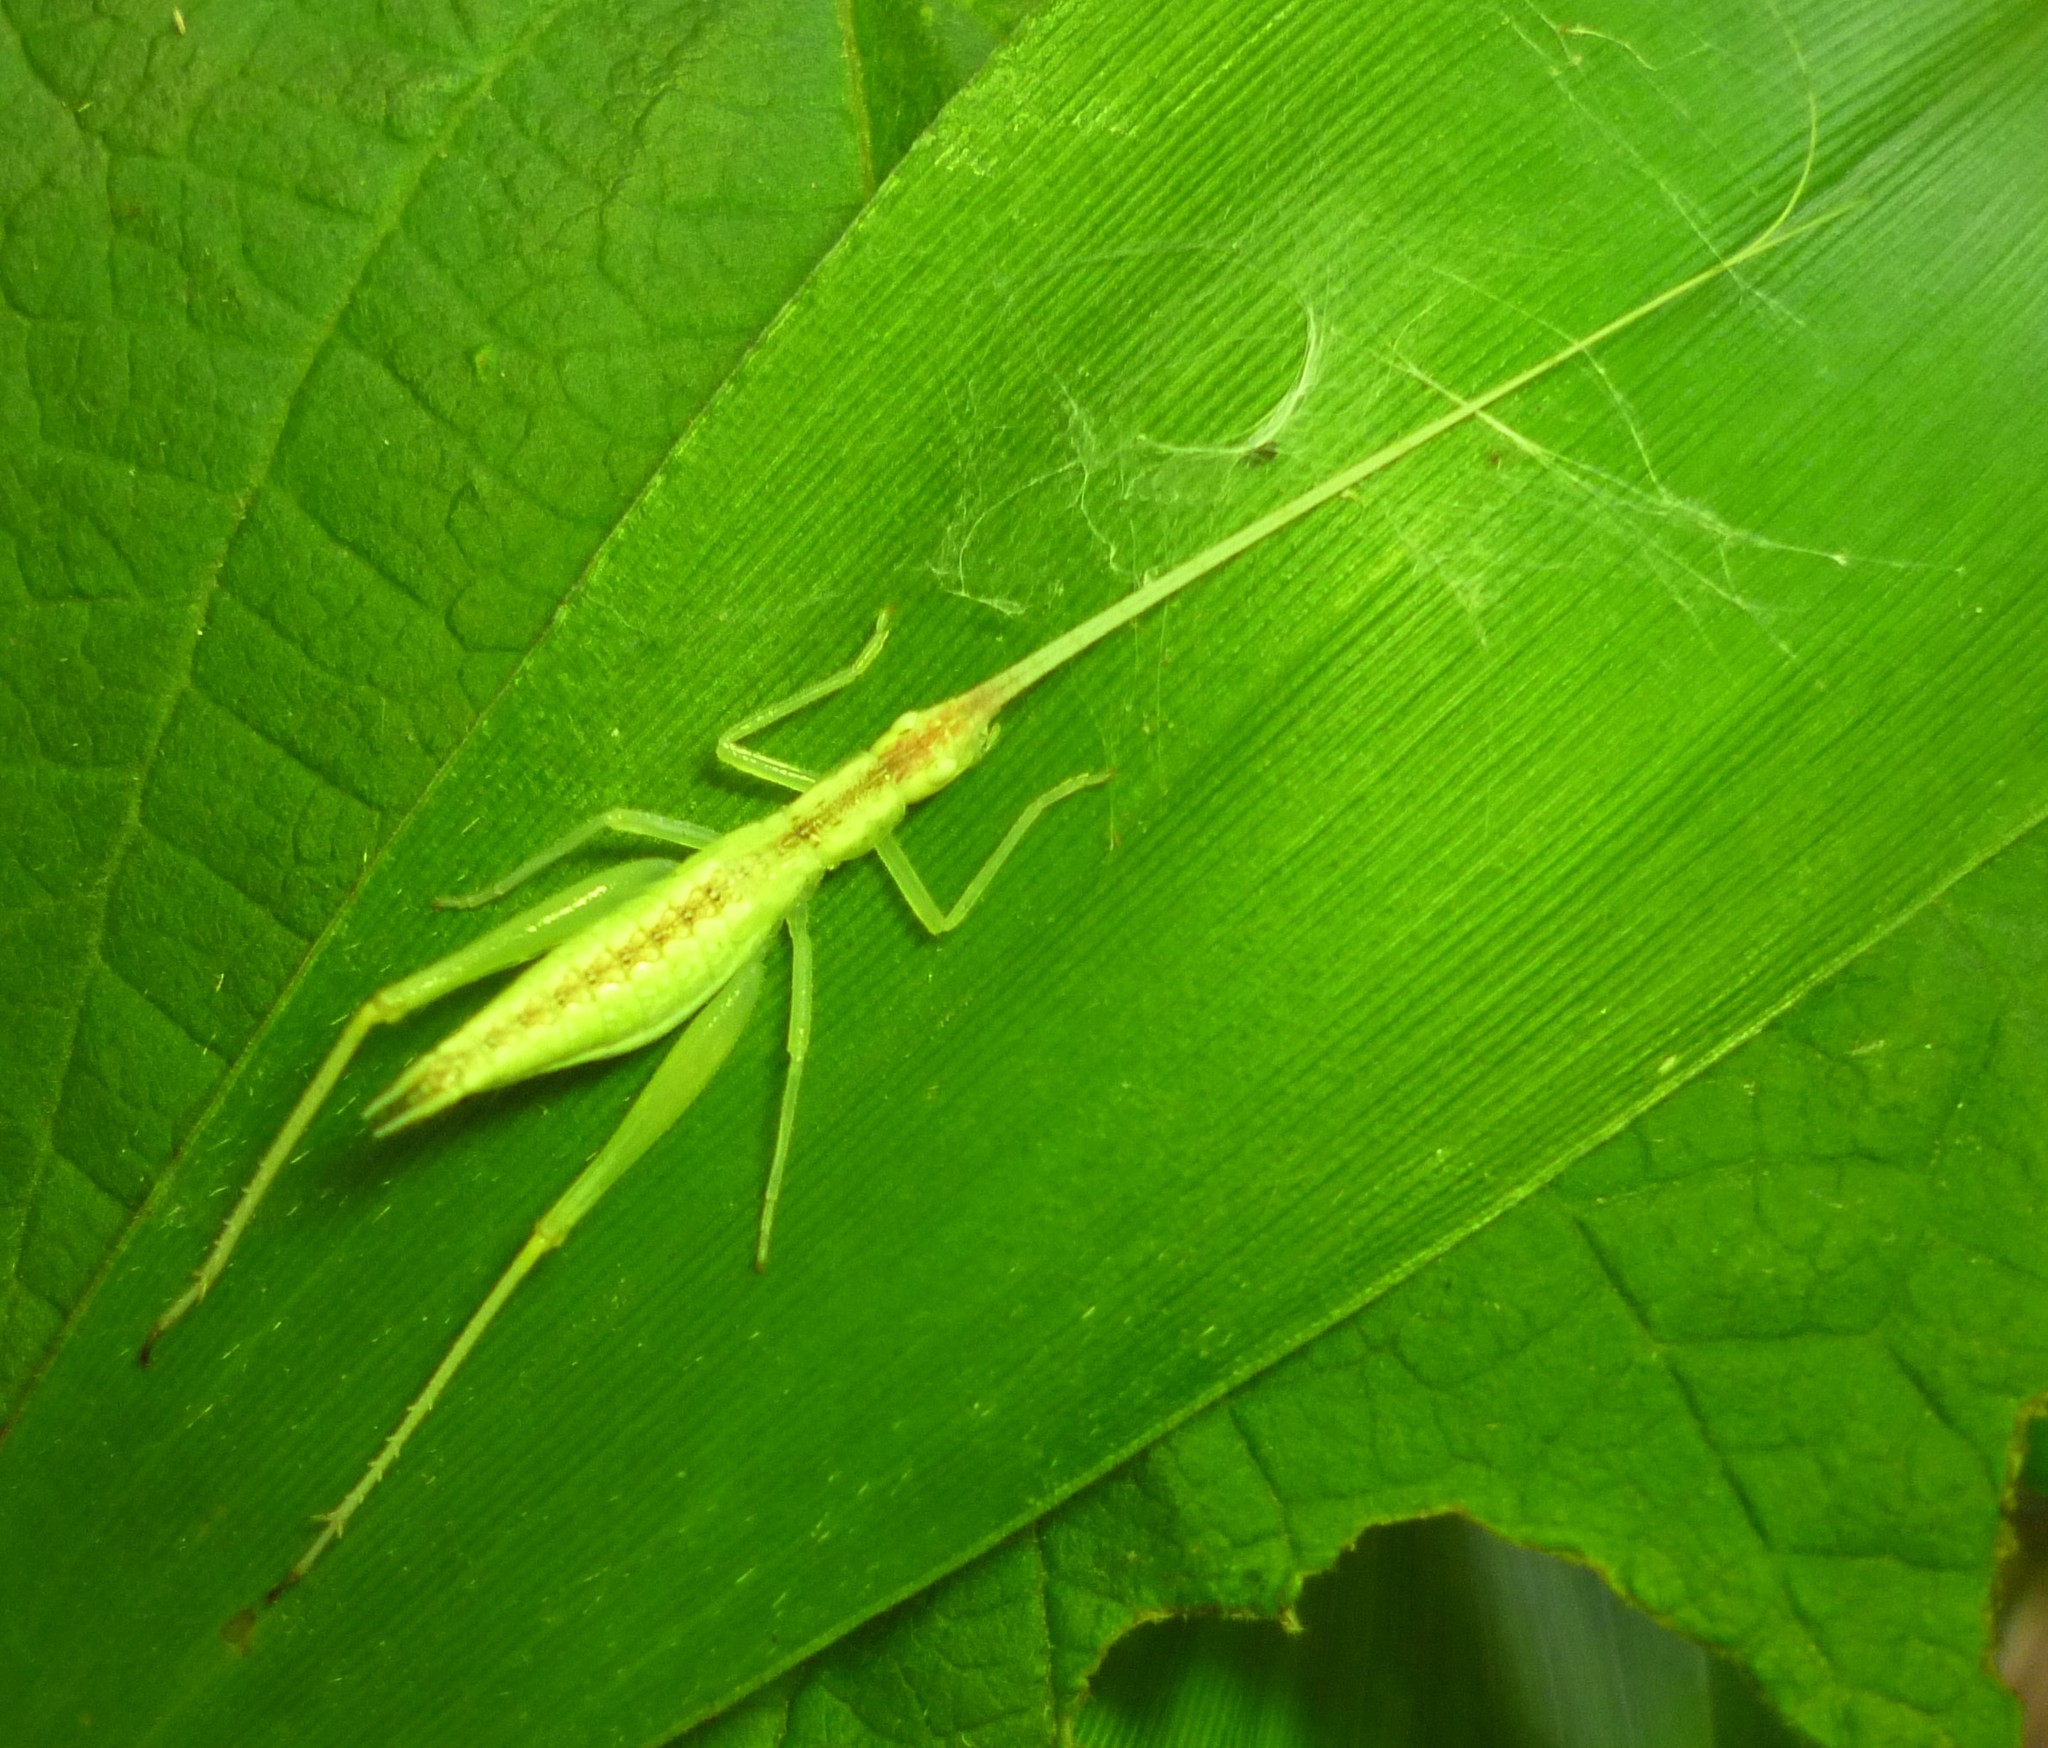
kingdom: Animalia
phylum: Arthropoda
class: Insecta
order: Orthoptera
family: Gryllidae
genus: Oecanthus
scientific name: Oecanthus latipennis
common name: Broad-winged tree cricket
